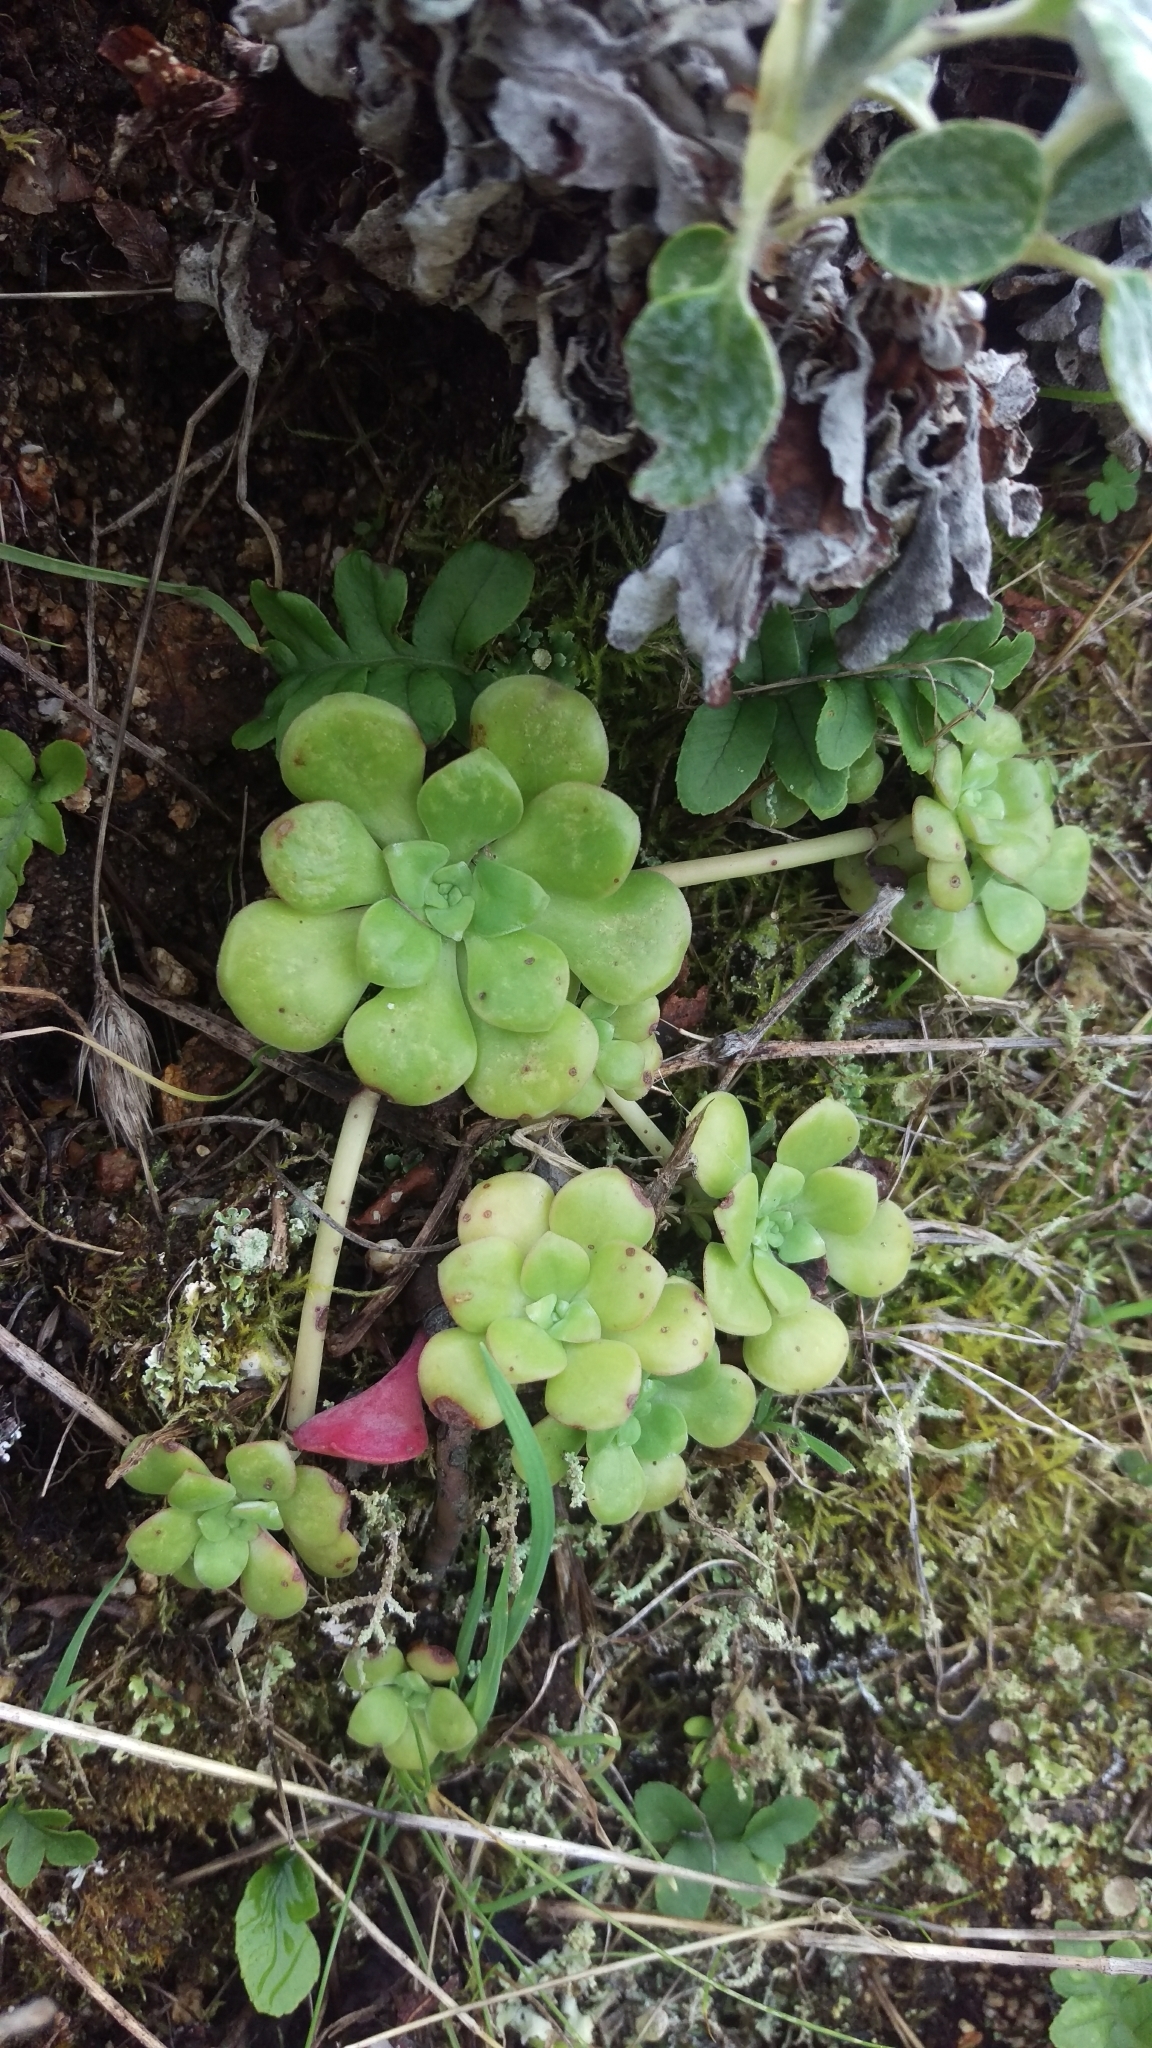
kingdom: Plantae
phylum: Tracheophyta
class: Magnoliopsida
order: Saxifragales
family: Crassulaceae
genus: Sedum
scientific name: Sedum spathulifolium
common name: Colorado stonecrop
